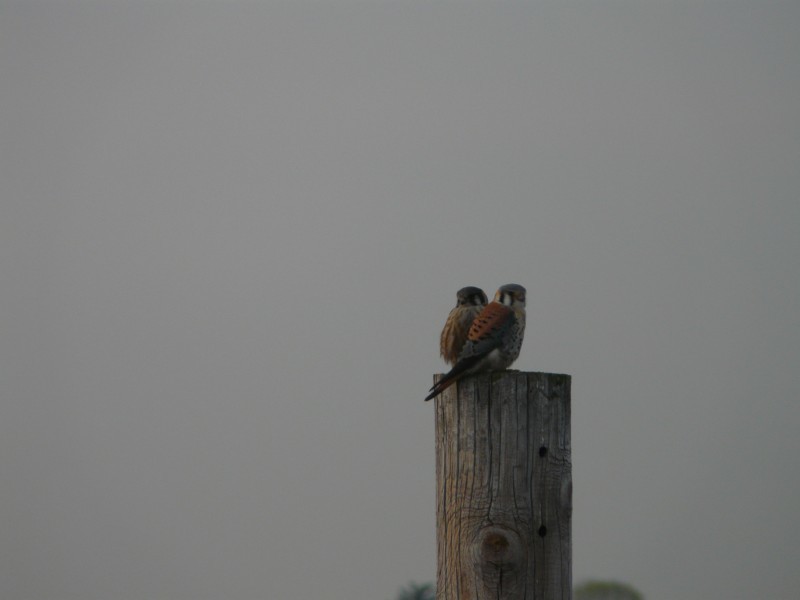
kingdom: Animalia
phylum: Chordata
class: Aves
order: Falconiformes
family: Falconidae
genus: Falco
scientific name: Falco sparverius
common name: American kestrel
